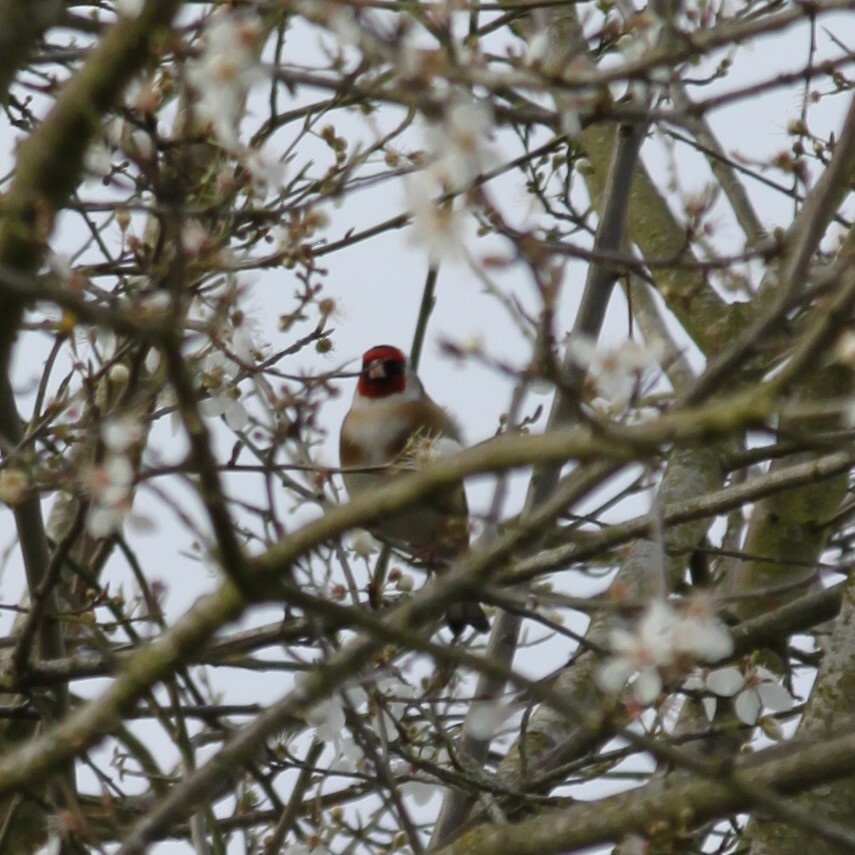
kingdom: Animalia
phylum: Chordata
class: Aves
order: Passeriformes
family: Fringillidae
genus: Carduelis
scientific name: Carduelis carduelis
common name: European goldfinch
